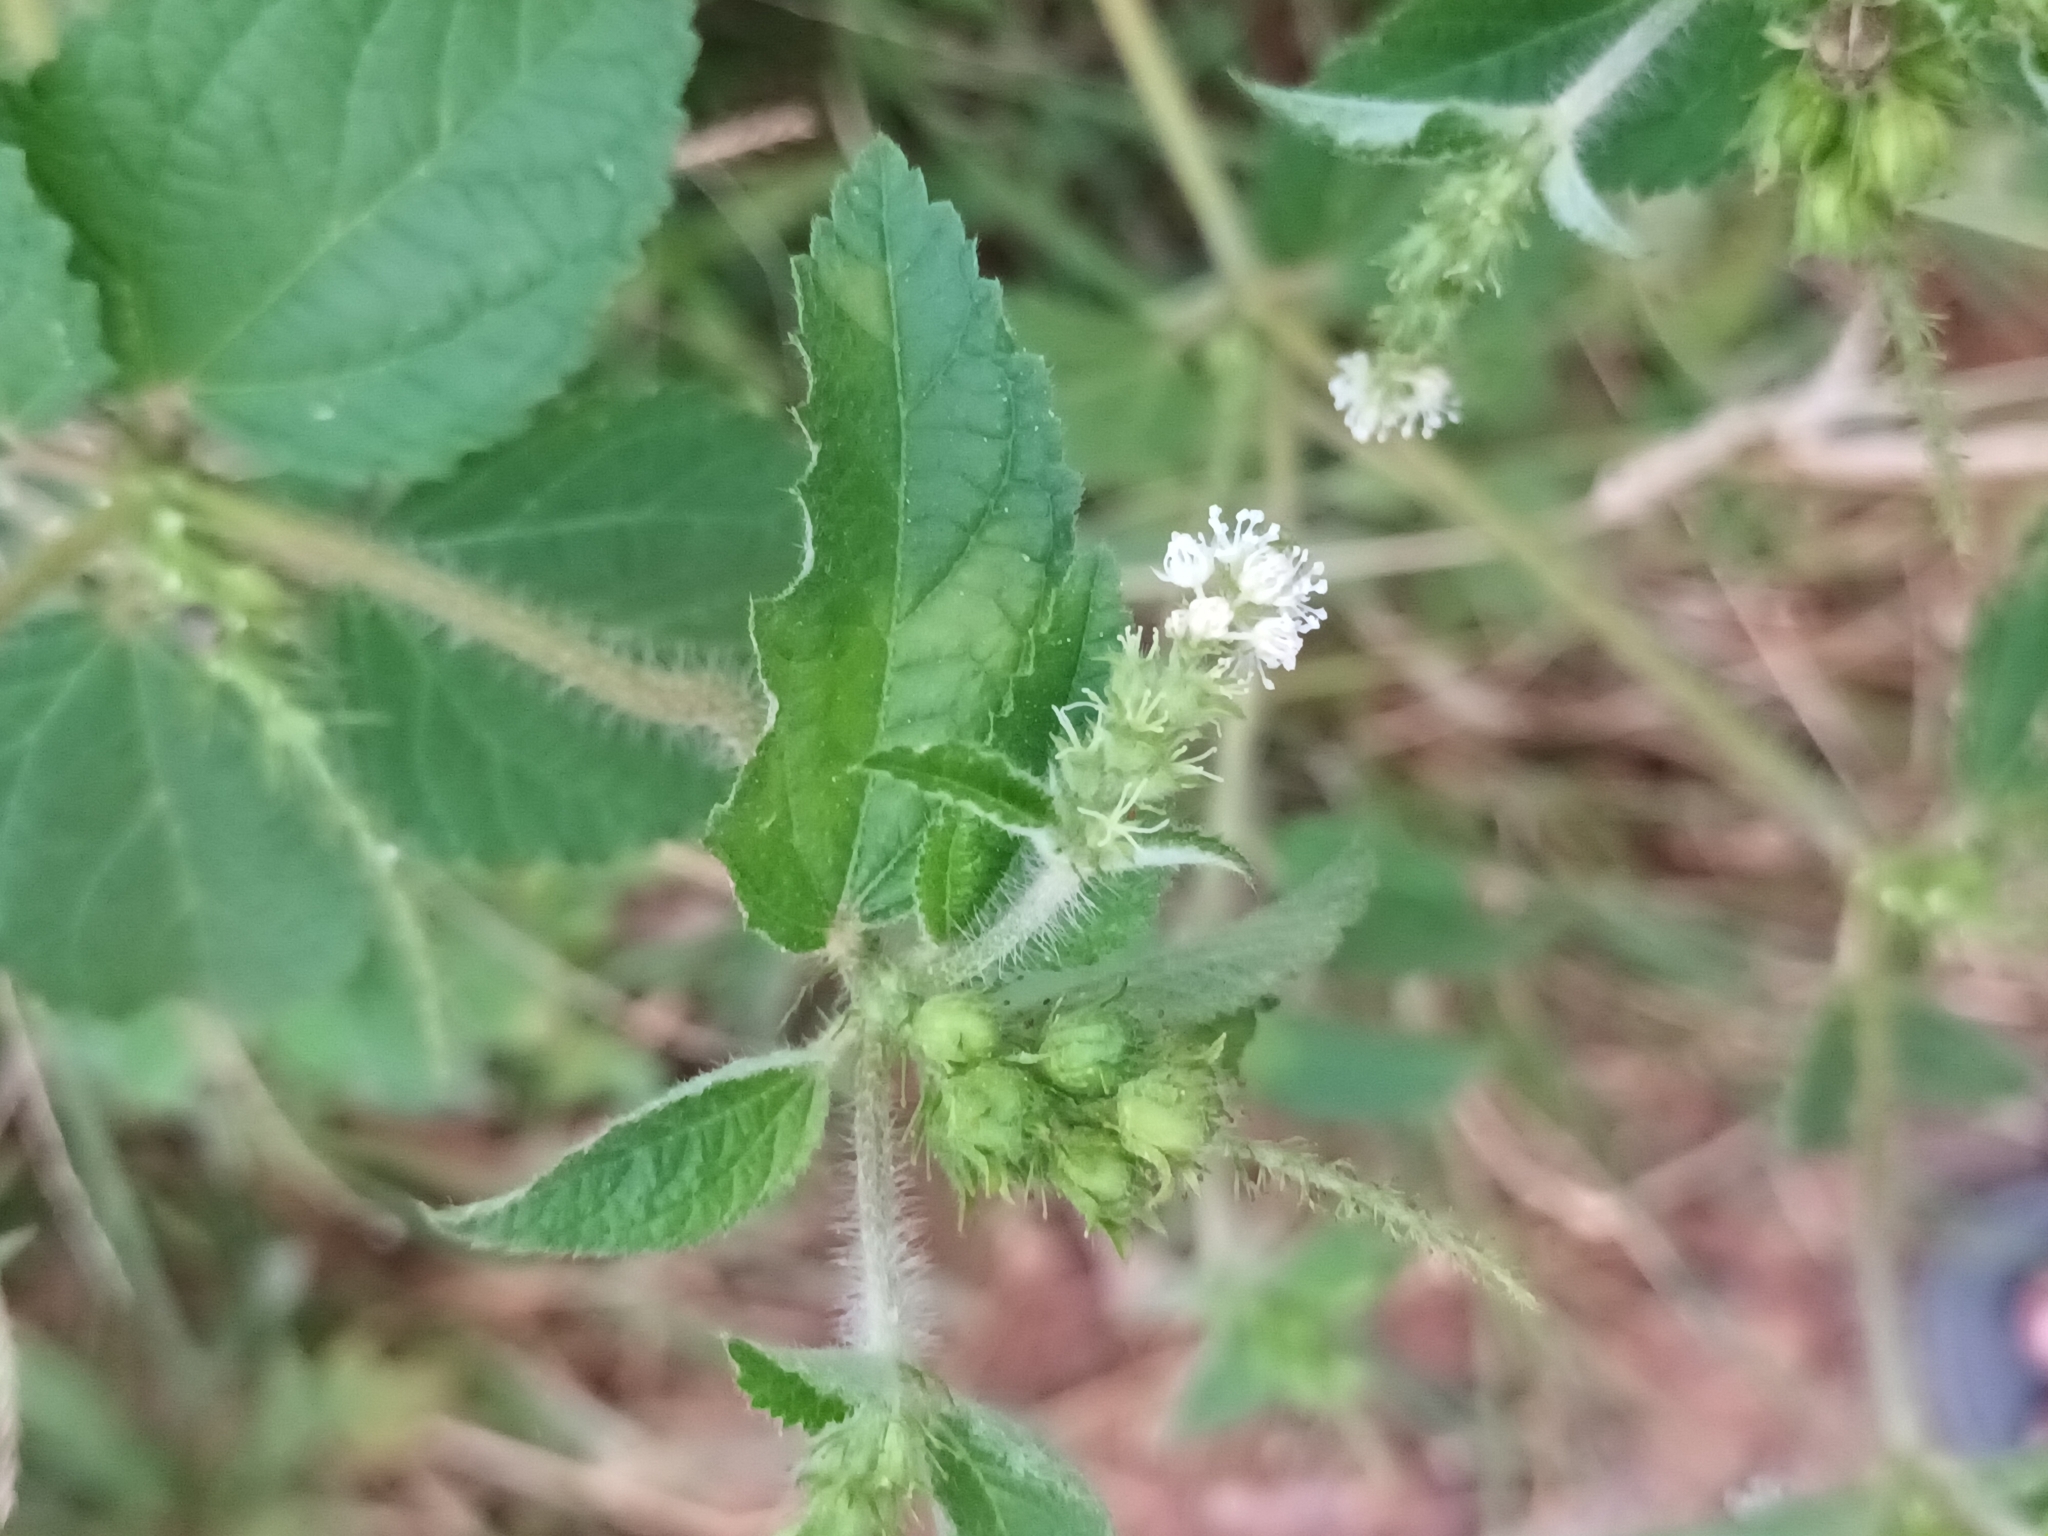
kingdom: Plantae
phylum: Tracheophyta
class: Magnoliopsida
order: Malpighiales
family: Euphorbiaceae
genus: Croton
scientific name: Croton hirtus
